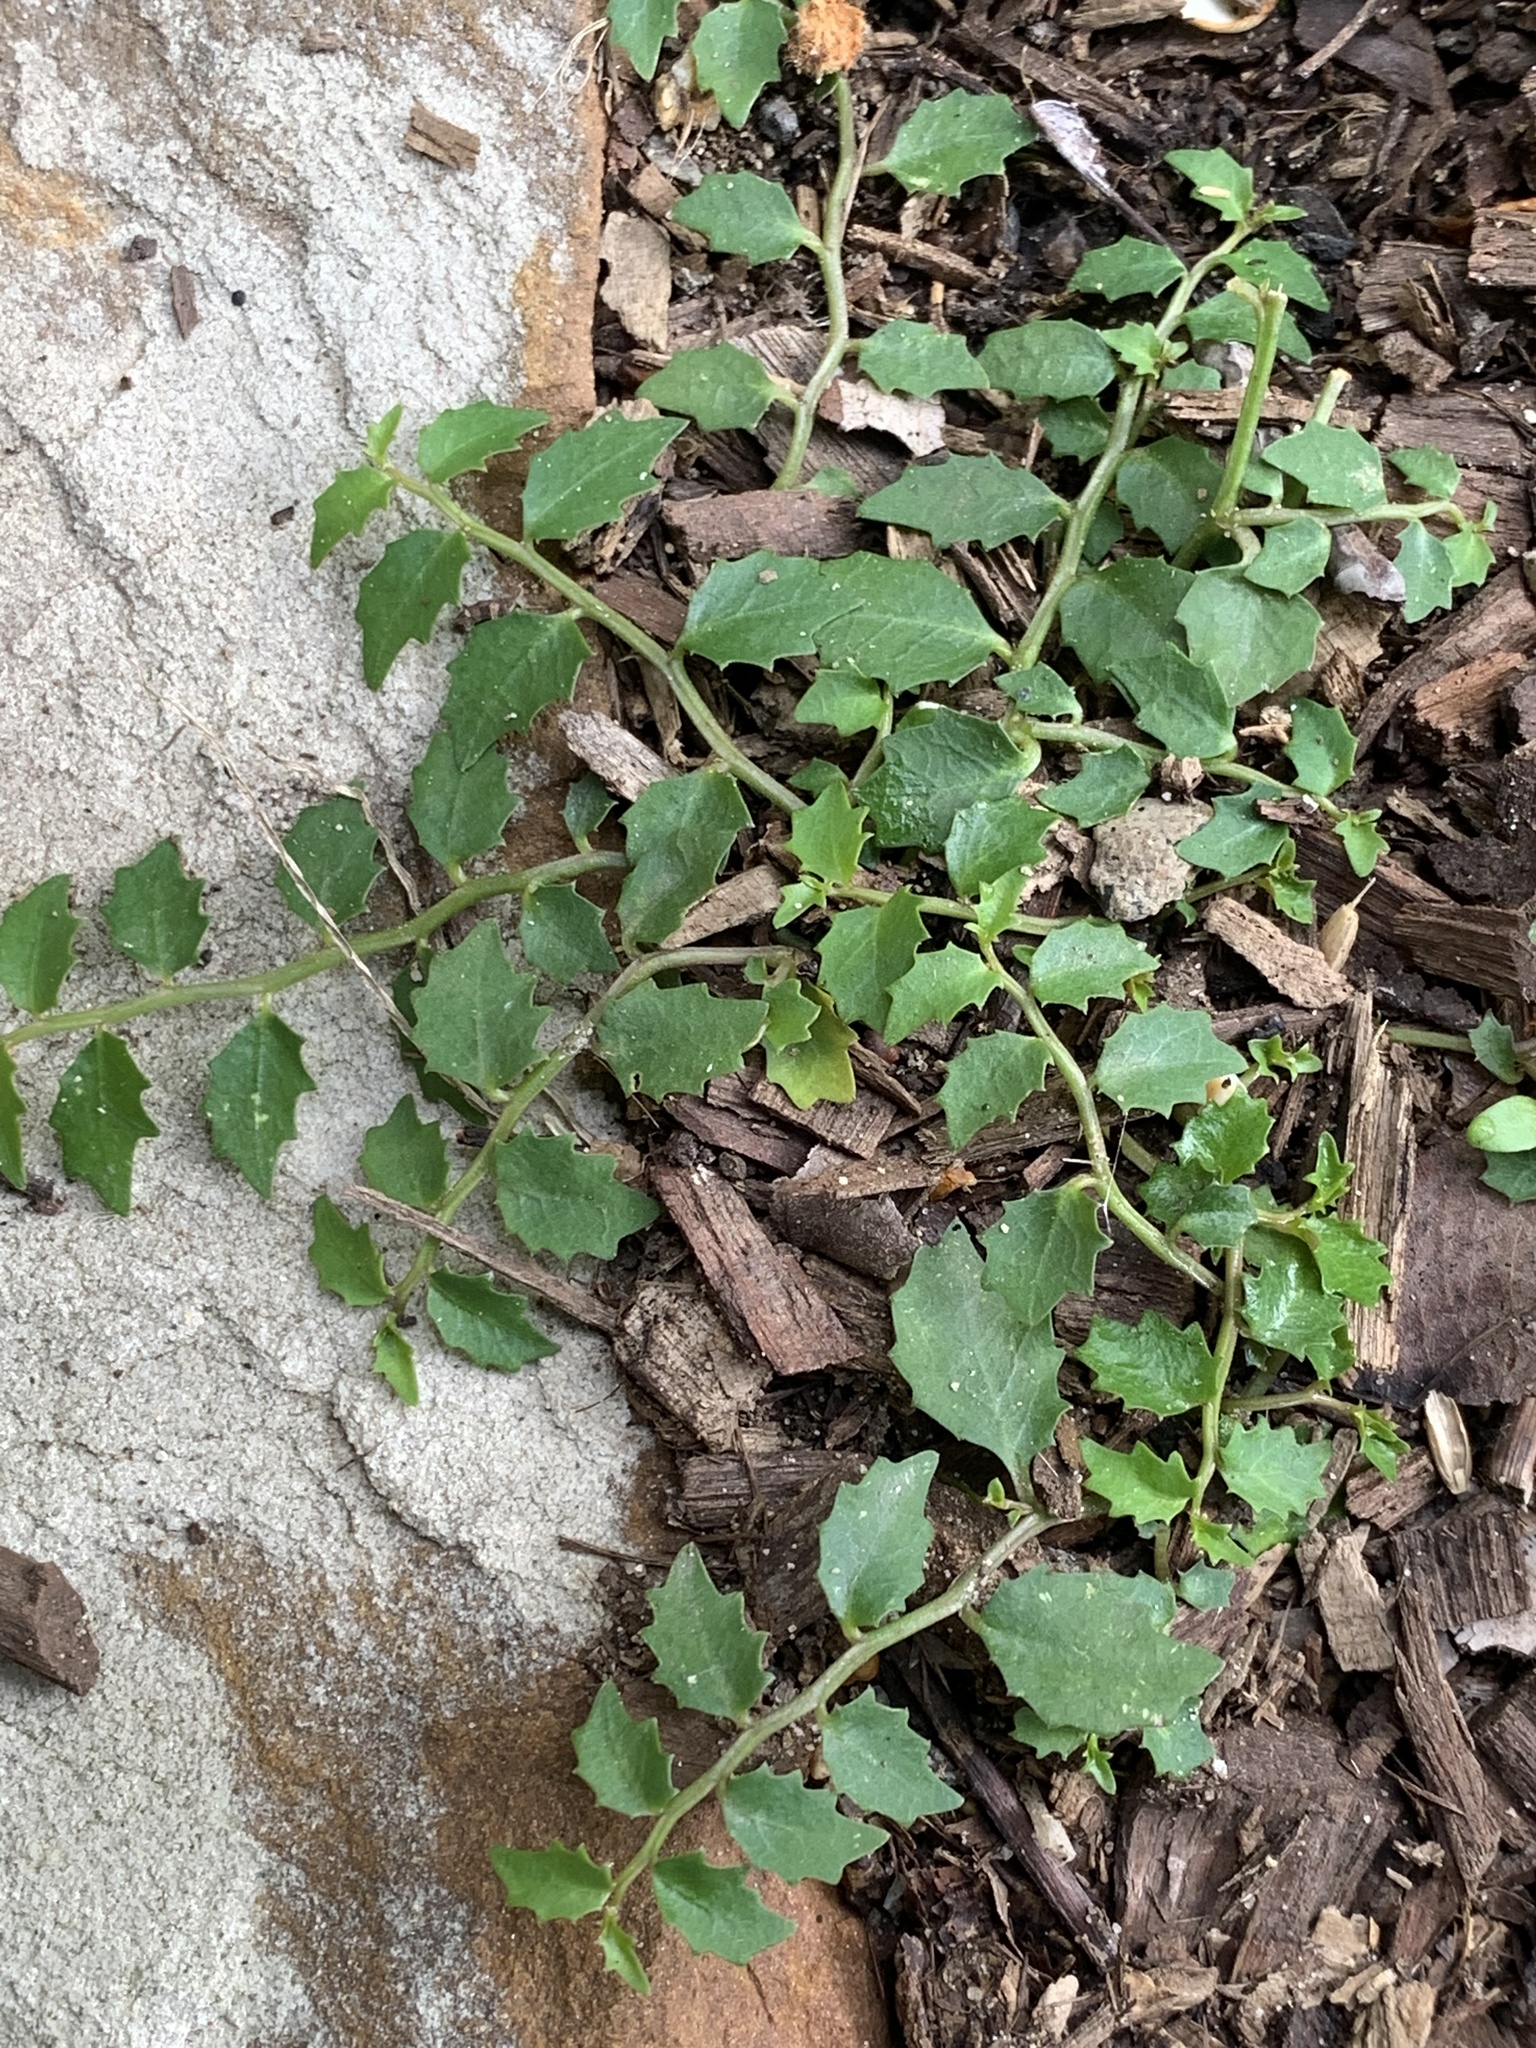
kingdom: Plantae
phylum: Tracheophyta
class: Magnoliopsida
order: Asterales
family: Campanulaceae
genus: Lobelia
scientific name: Lobelia purpurascens
